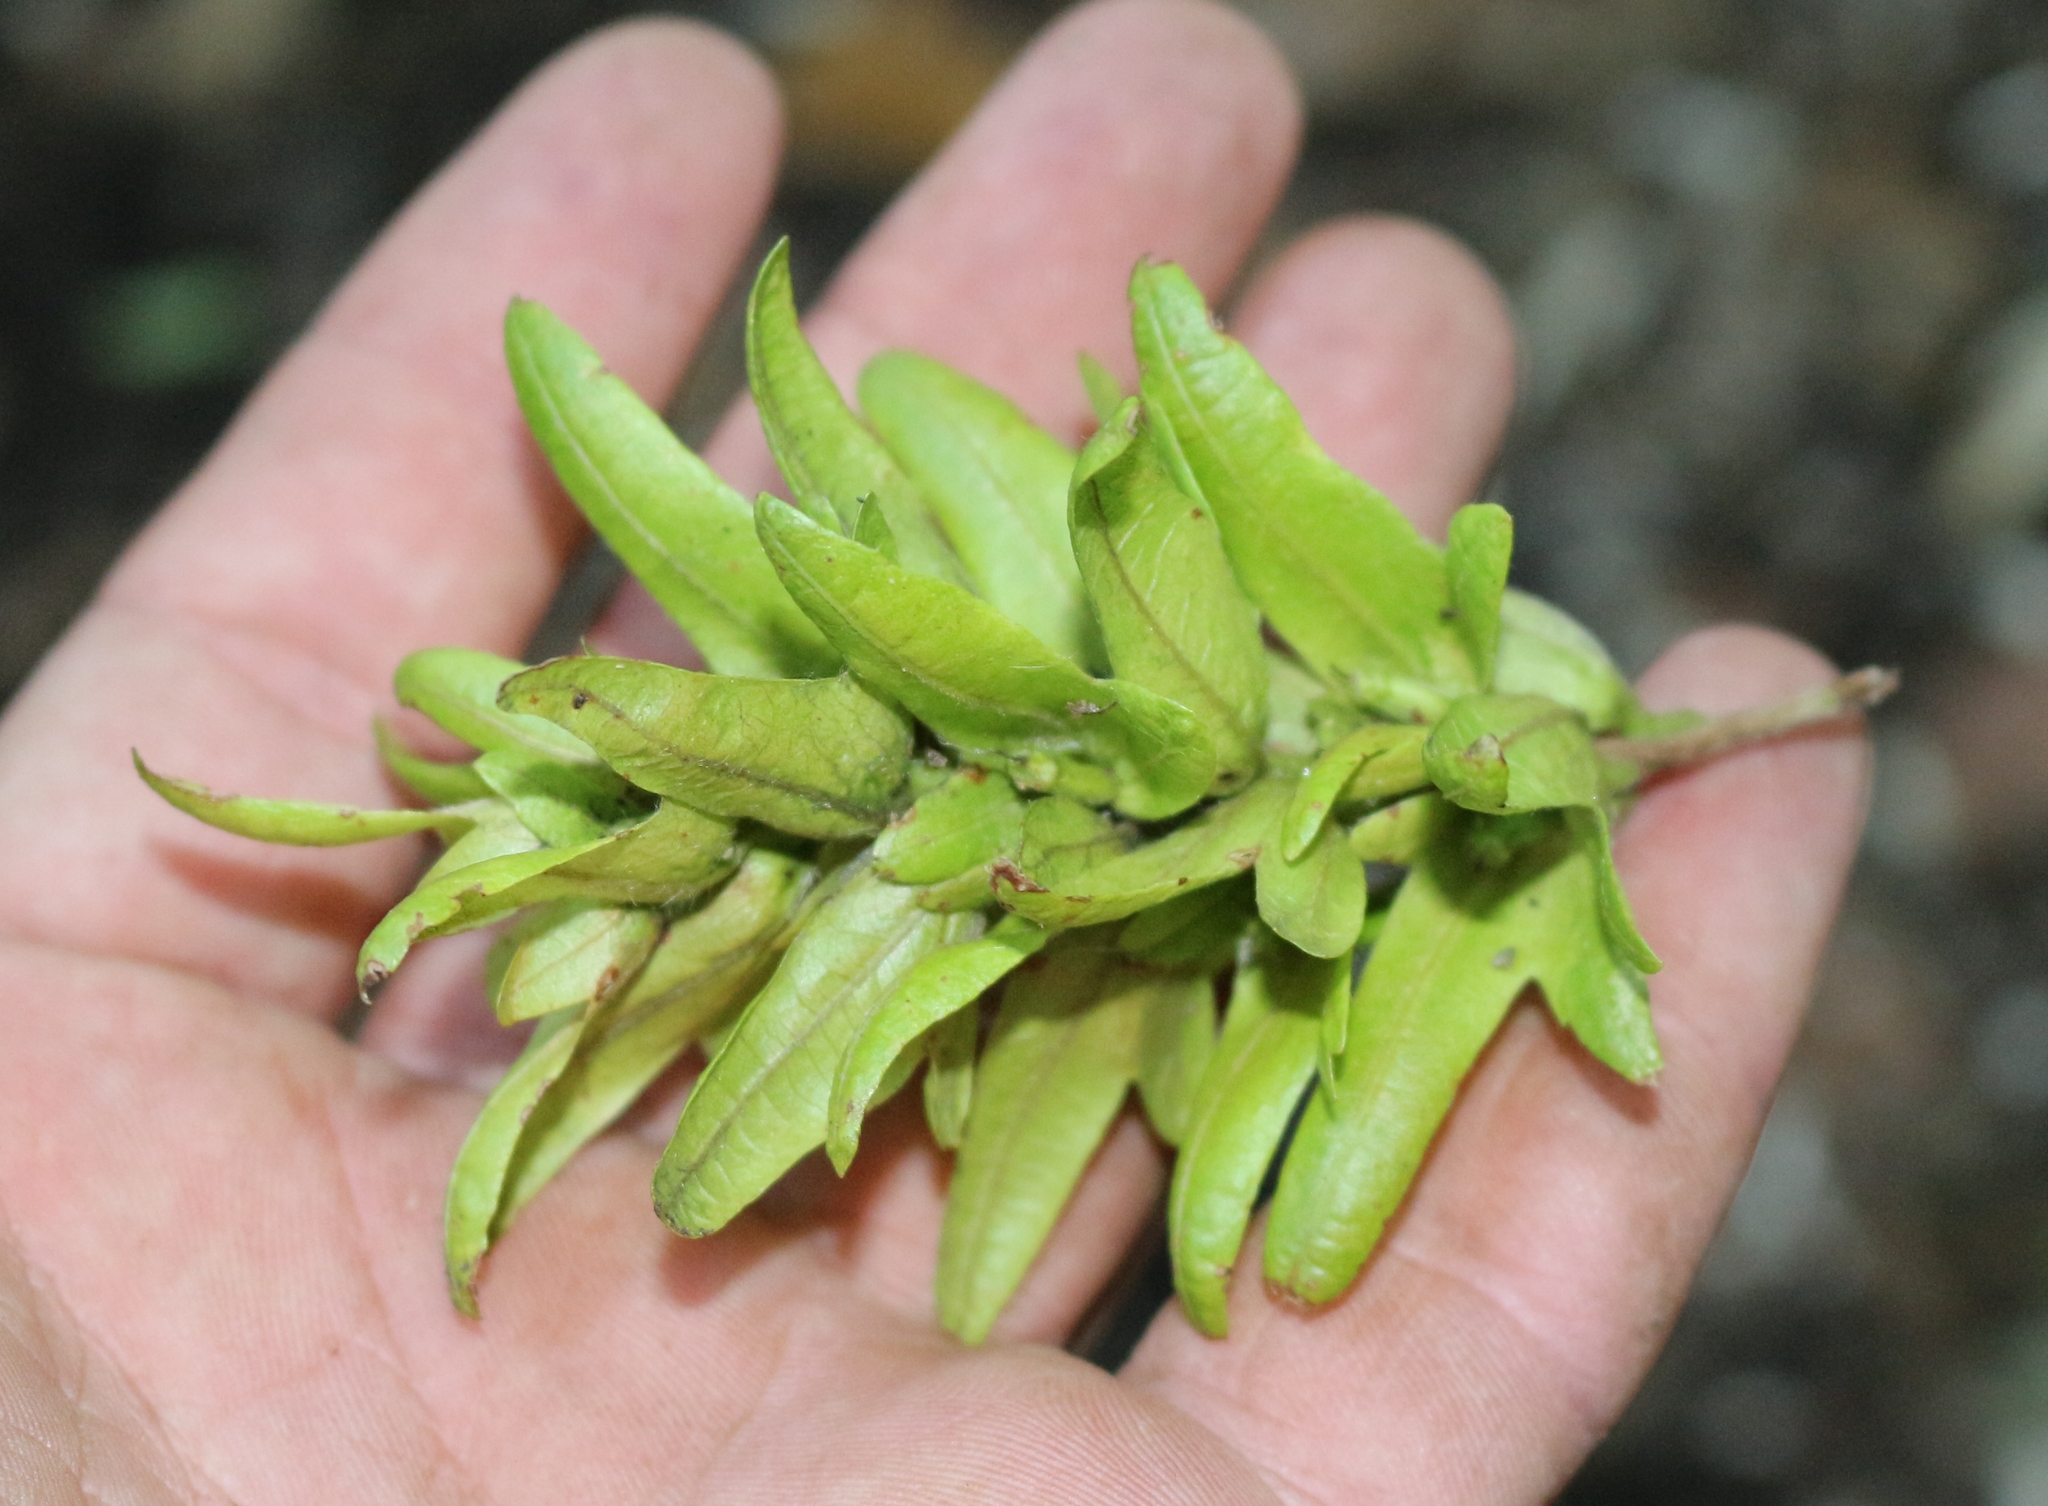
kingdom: Plantae
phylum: Tracheophyta
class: Magnoliopsida
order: Fagales
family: Betulaceae
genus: Carpinus
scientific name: Carpinus betulus
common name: Hornbeam
